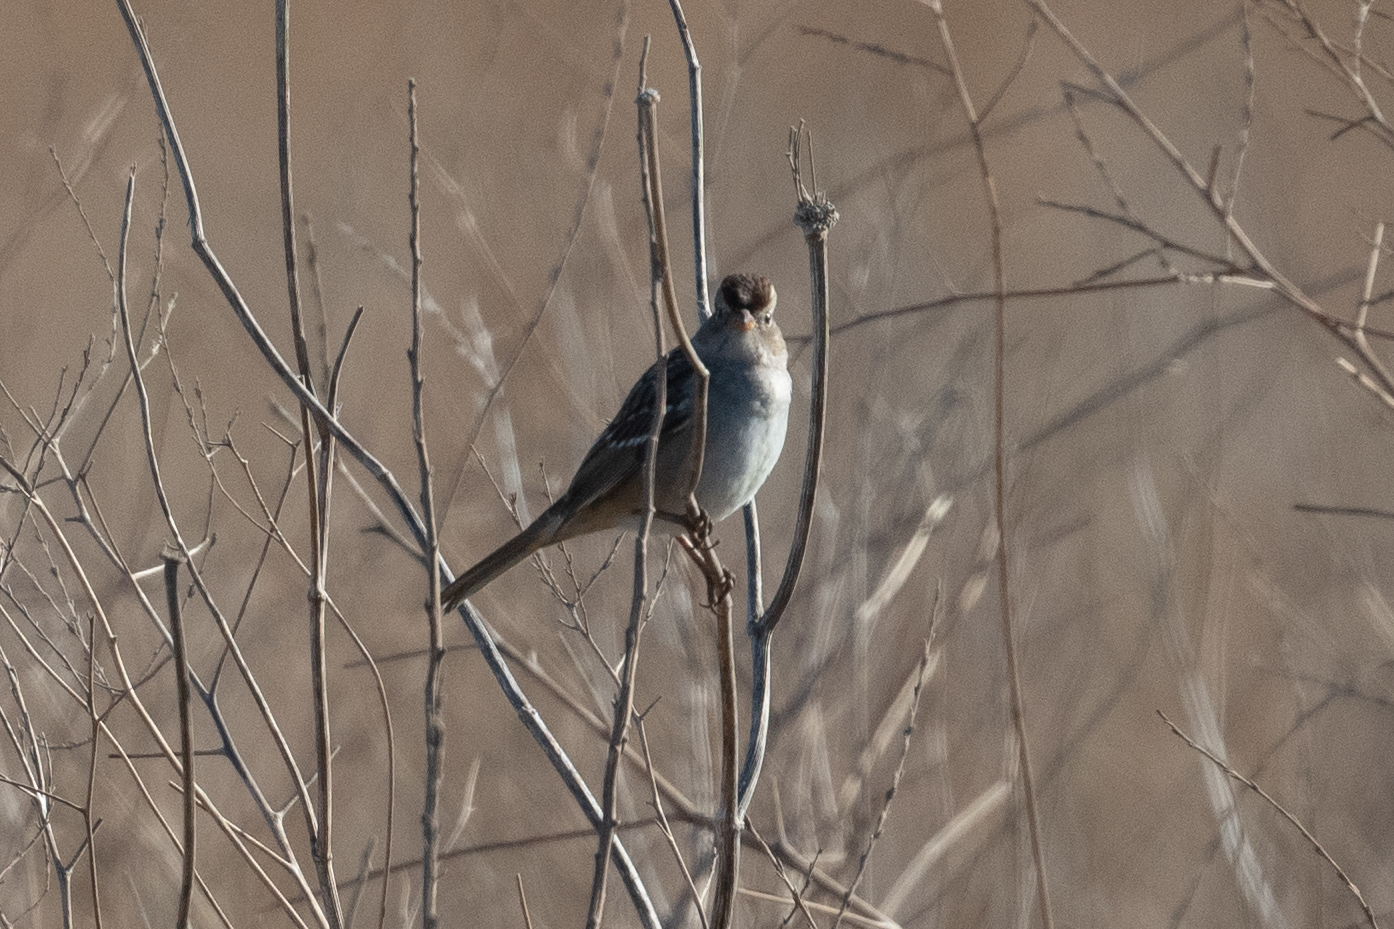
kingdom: Animalia
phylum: Chordata
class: Aves
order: Passeriformes
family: Passerellidae
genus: Zonotrichia
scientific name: Zonotrichia leucophrys
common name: White-crowned sparrow
